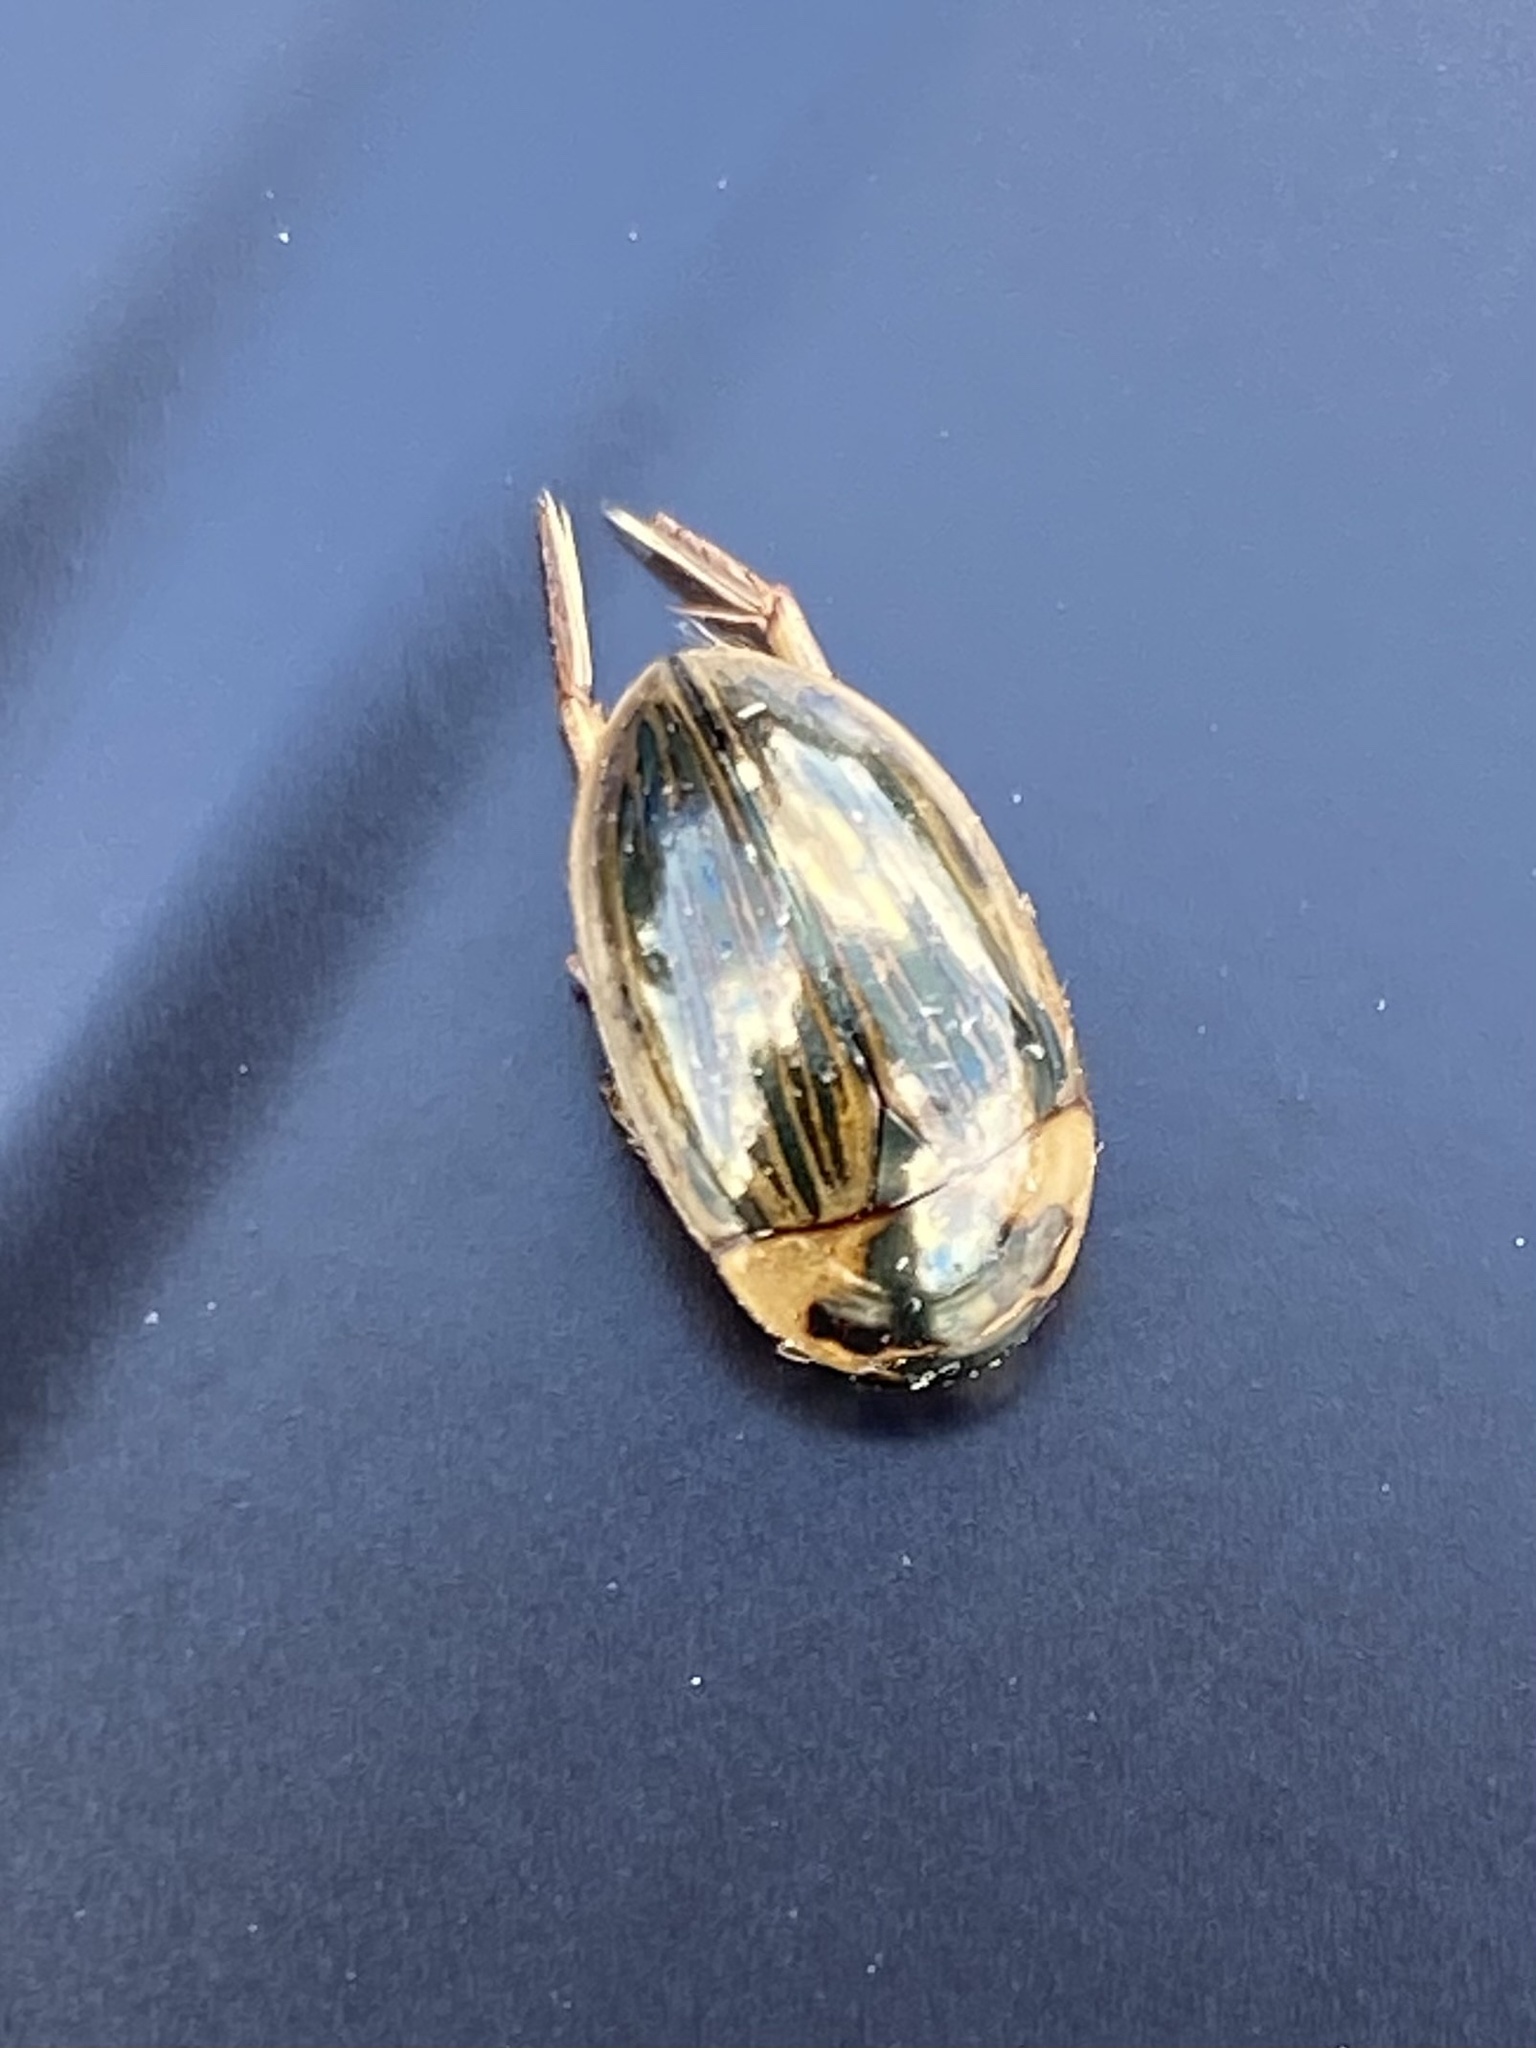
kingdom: Animalia
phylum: Arthropoda
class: Insecta
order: Coleoptera
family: Hydrophilidae
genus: Tropisternus
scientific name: Tropisternus collaris
